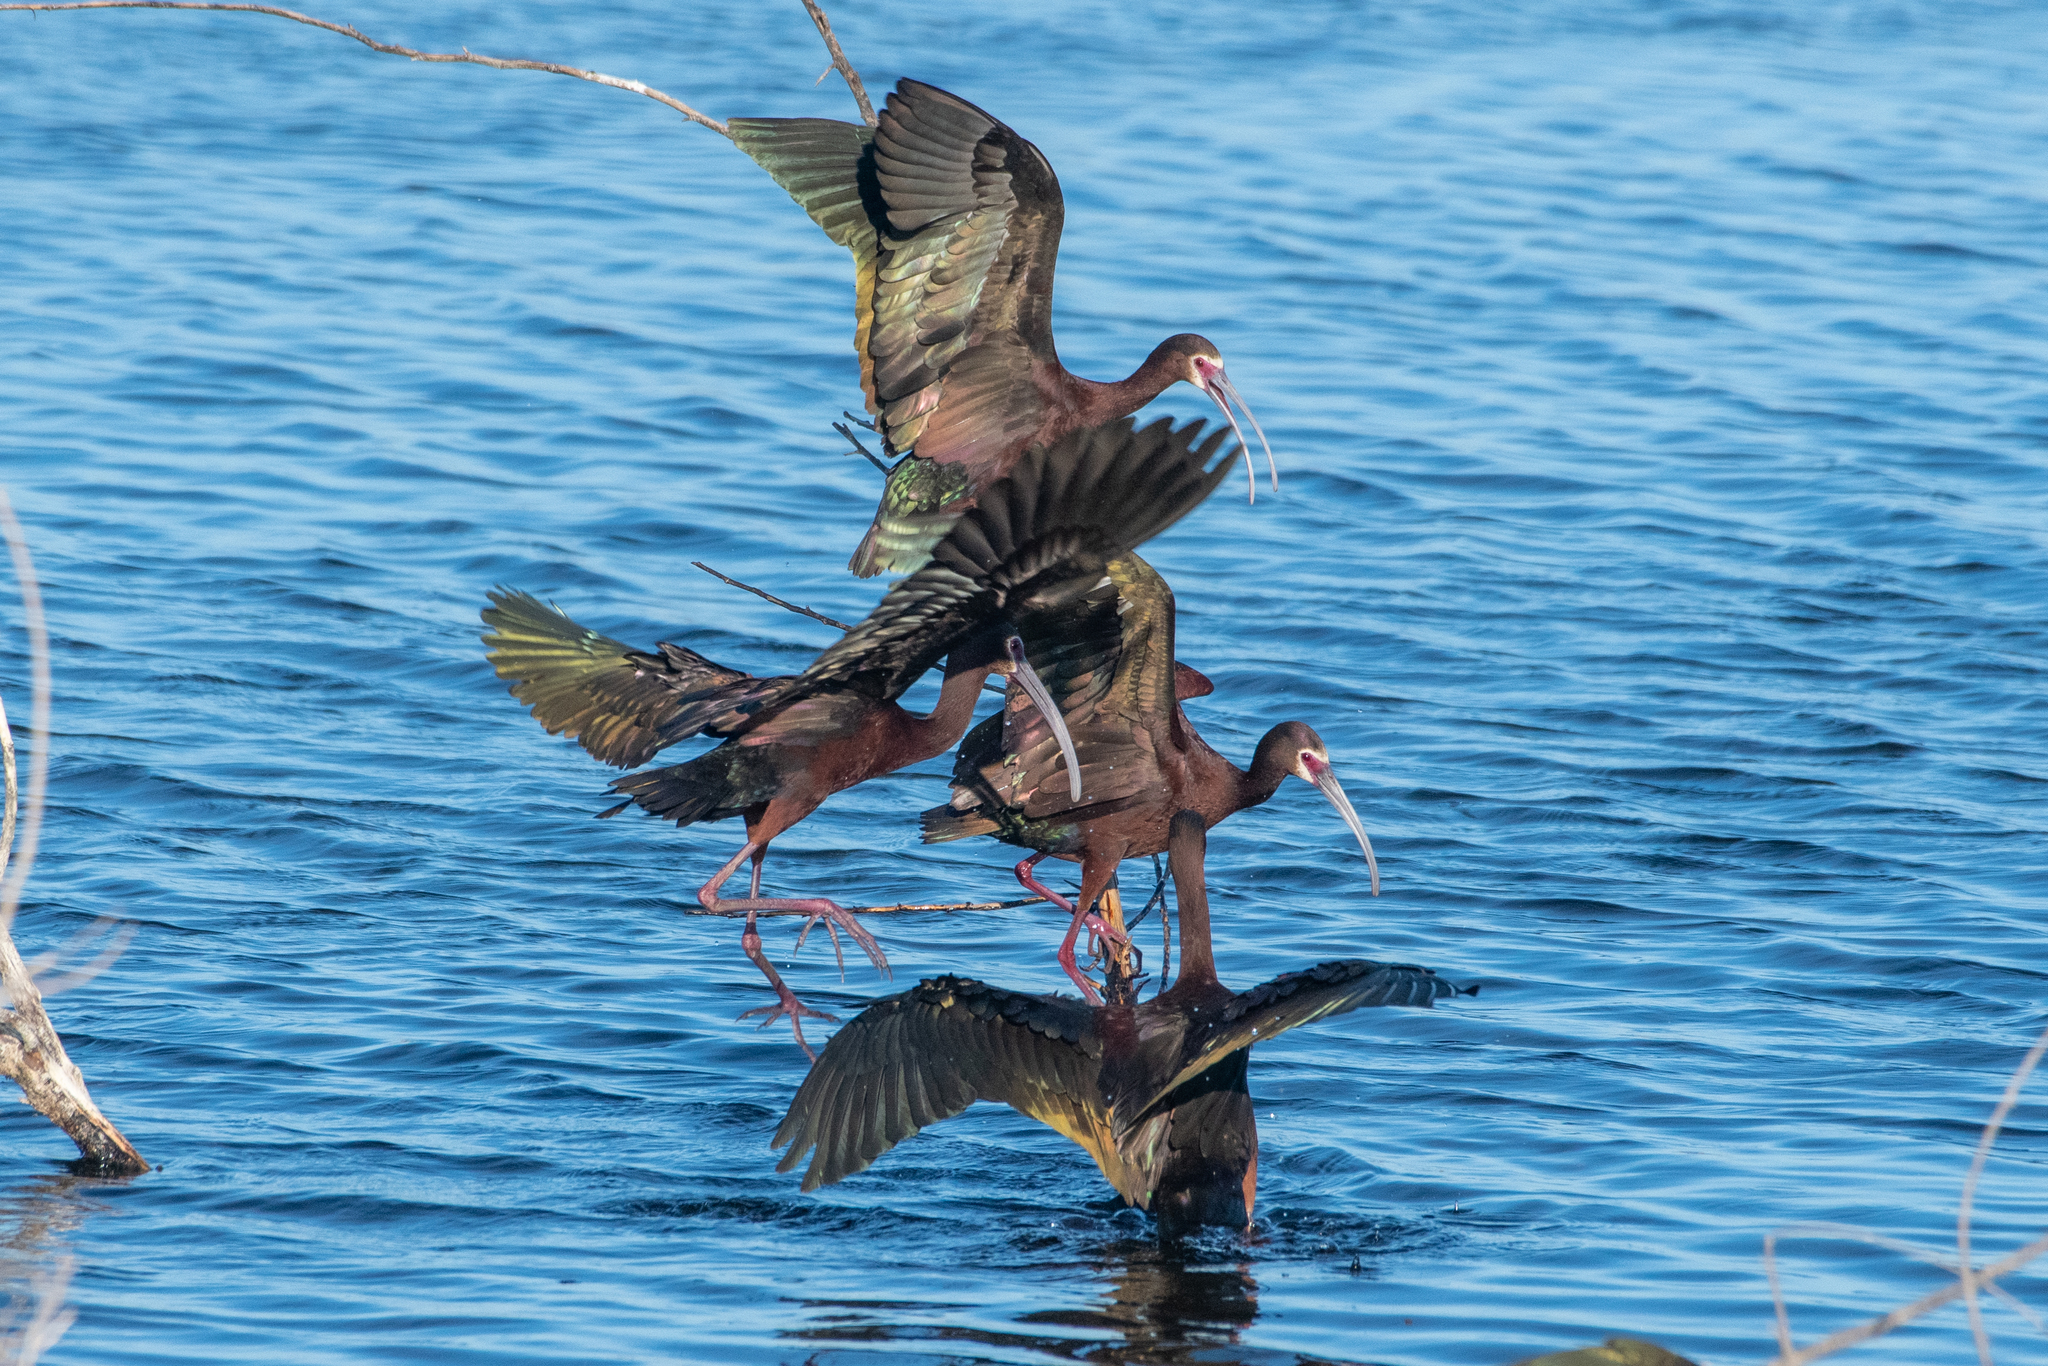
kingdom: Animalia
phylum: Chordata
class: Aves
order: Pelecaniformes
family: Threskiornithidae
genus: Plegadis
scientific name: Plegadis chihi
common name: White-faced ibis
